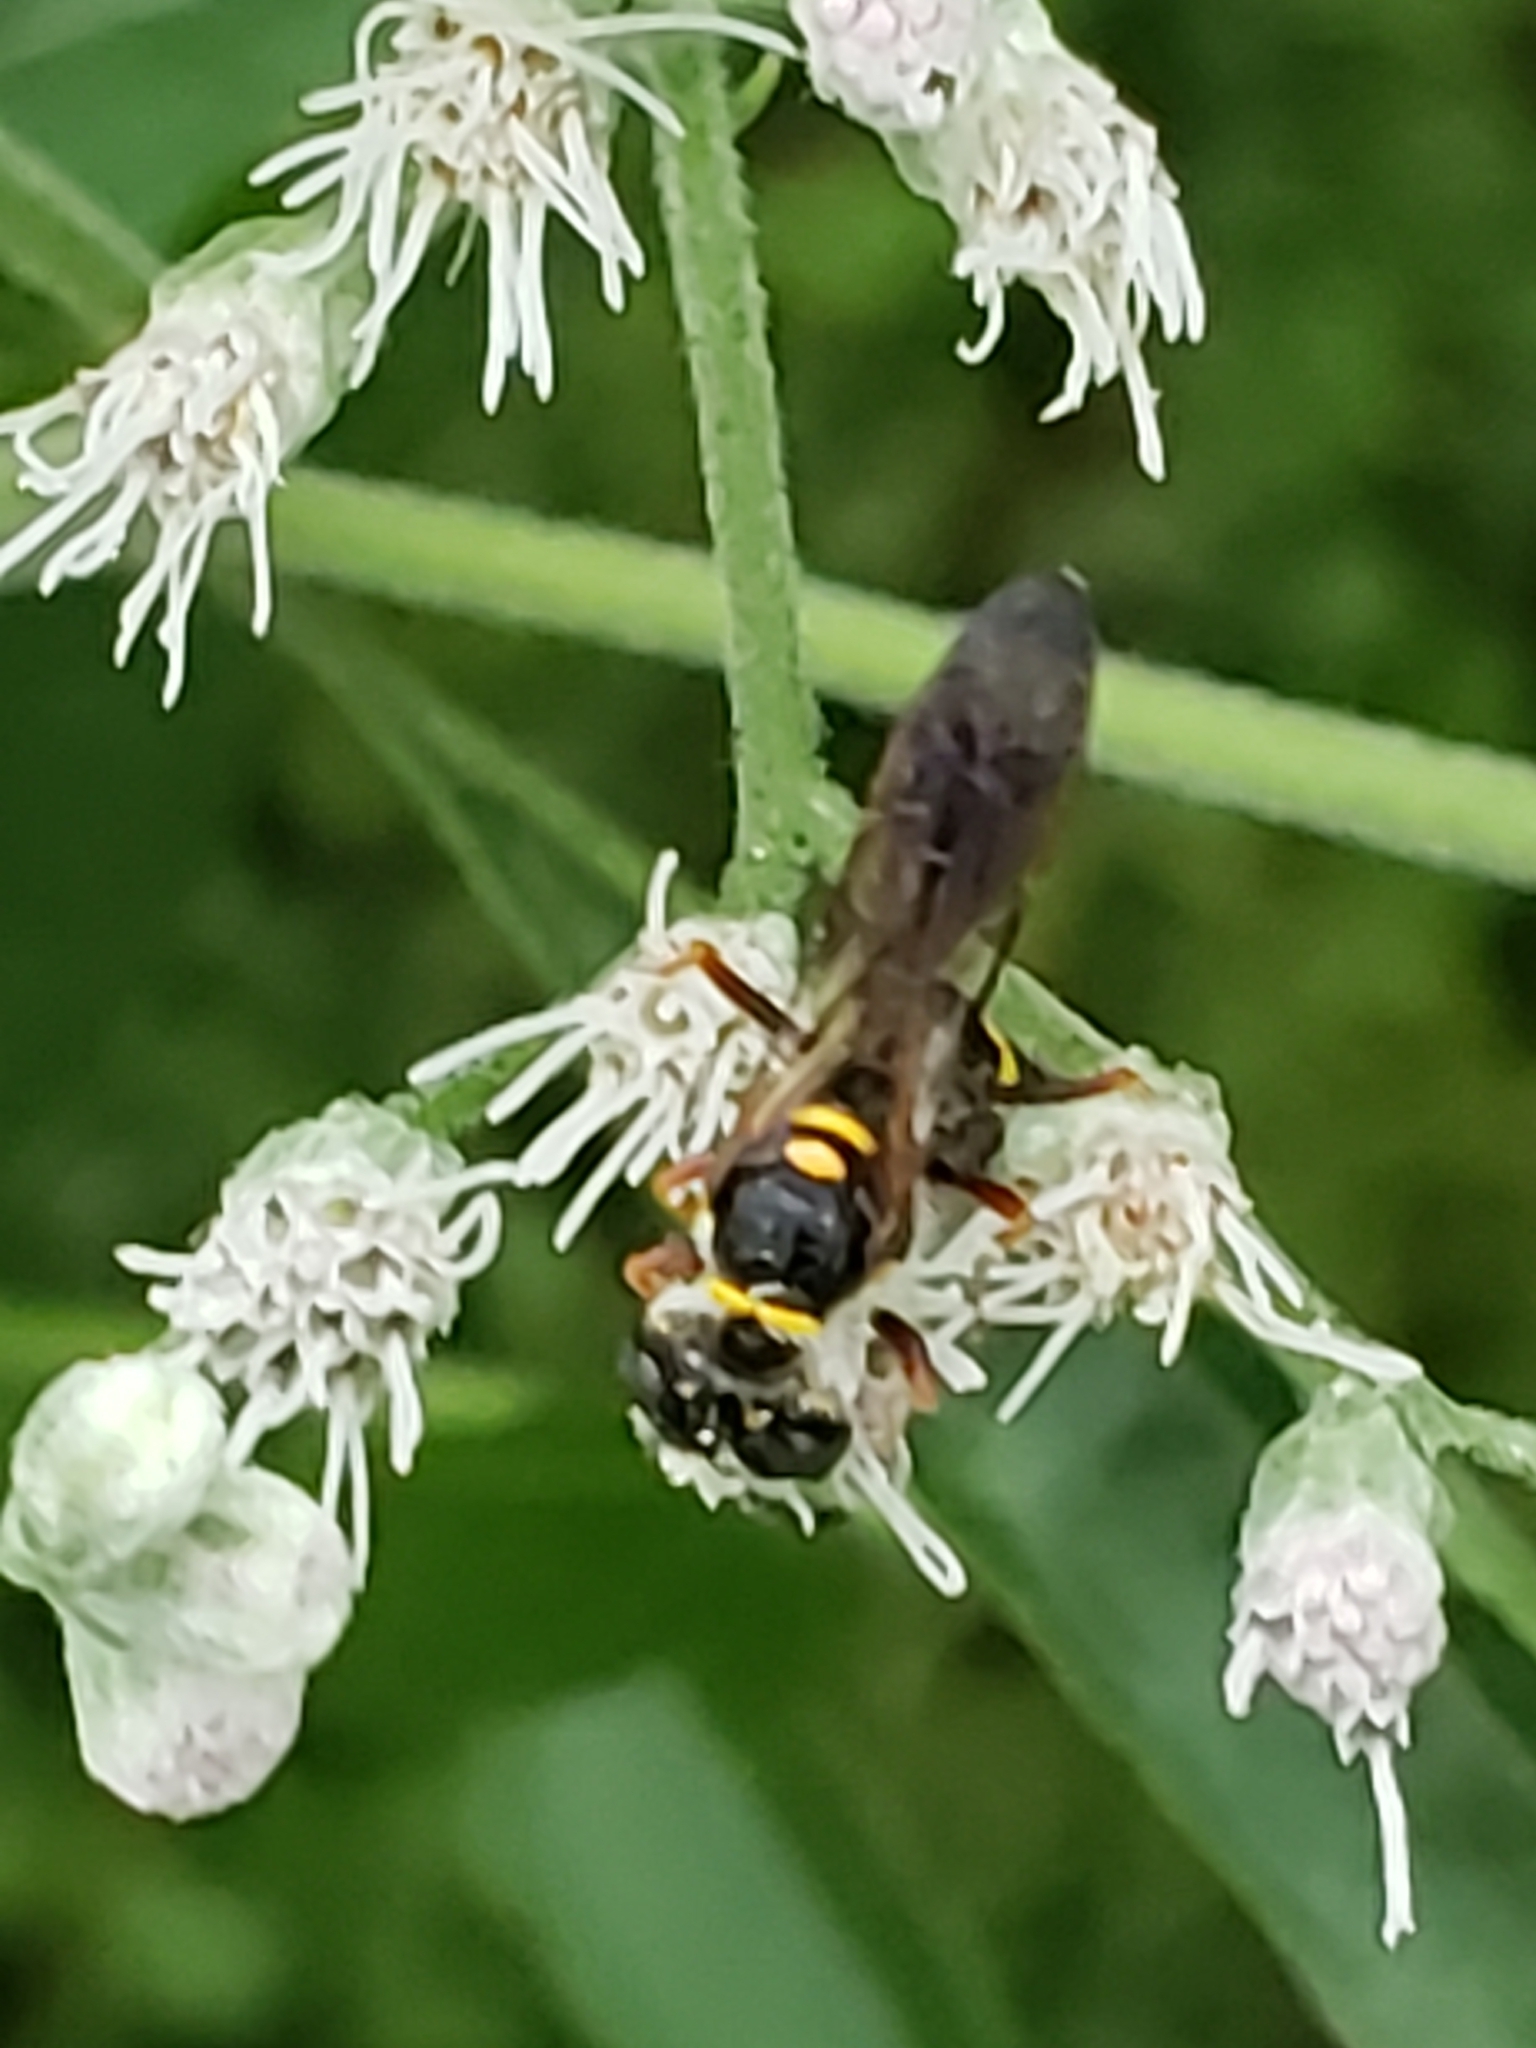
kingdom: Animalia
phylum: Arthropoda
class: Insecta
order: Hymenoptera
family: Crabronidae
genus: Philanthus
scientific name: Philanthus gibbosus
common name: Humped beewolf
